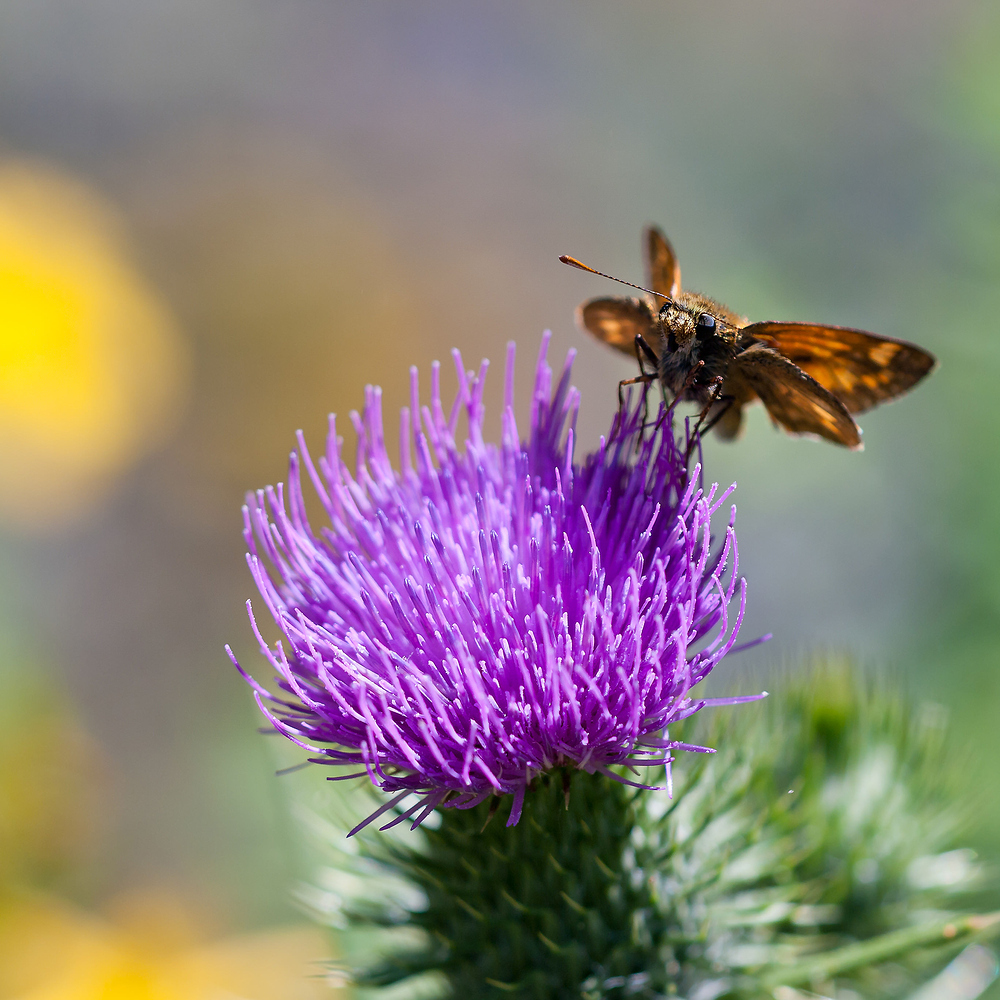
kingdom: Animalia
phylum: Arthropoda
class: Insecta
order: Lepidoptera
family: Hesperiidae
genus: Ochlodes
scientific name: Ochlodes venata
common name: Large skipper
